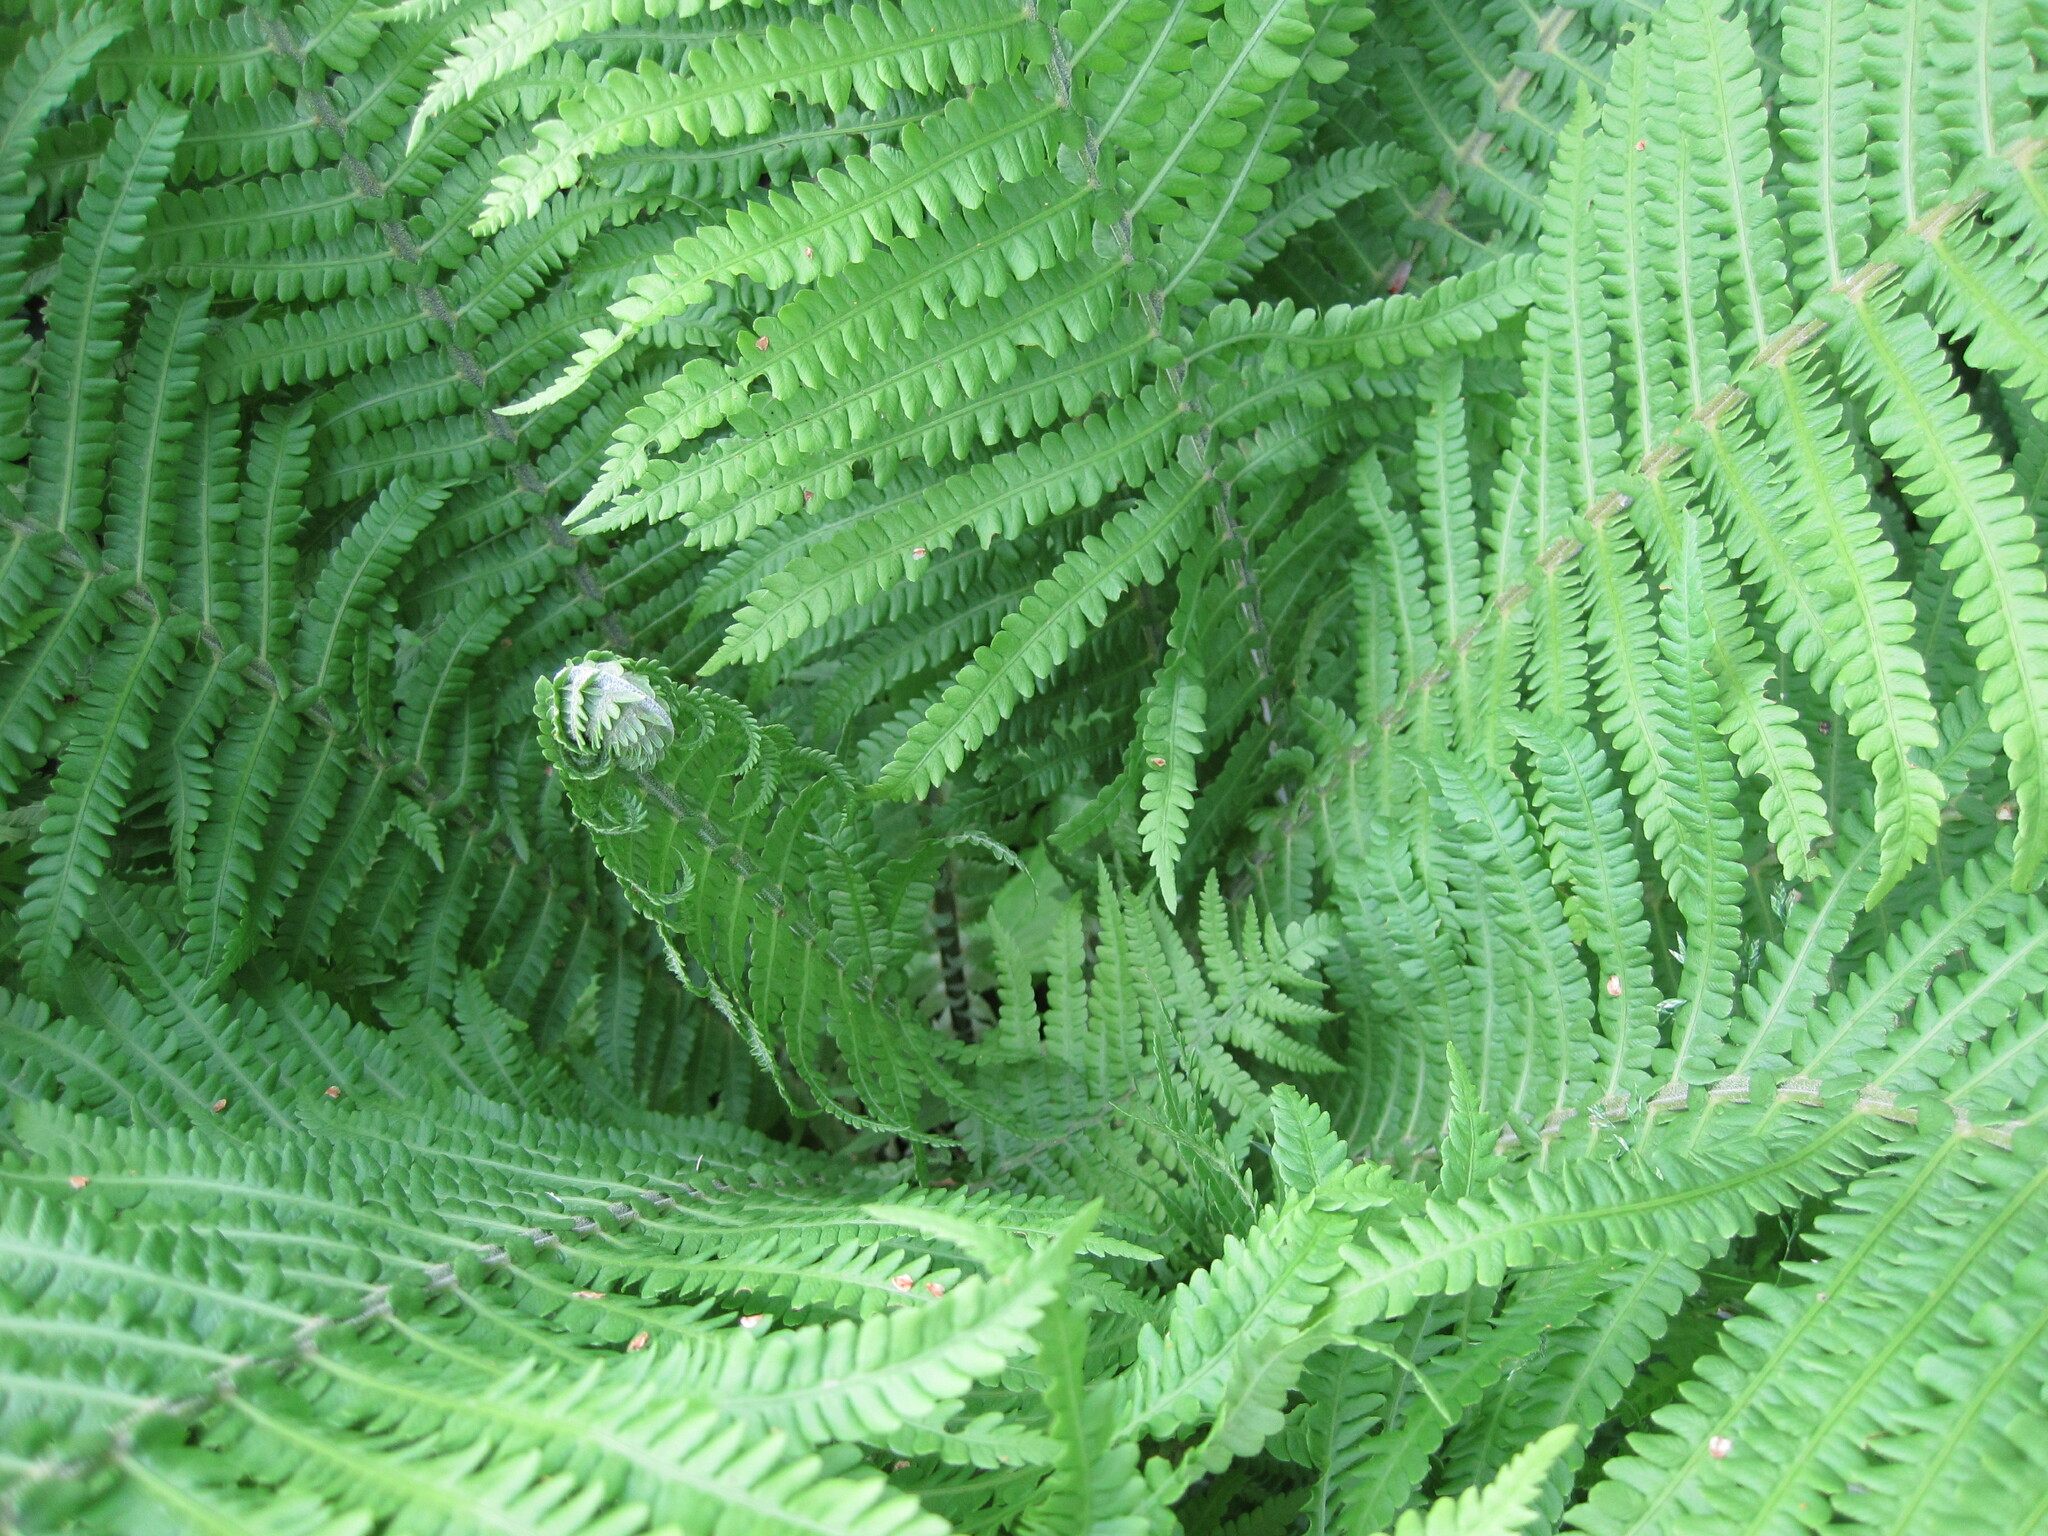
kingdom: Plantae
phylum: Tracheophyta
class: Polypodiopsida
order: Polypodiales
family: Onocleaceae
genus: Matteuccia
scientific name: Matteuccia struthiopteris
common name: Ostrich fern
